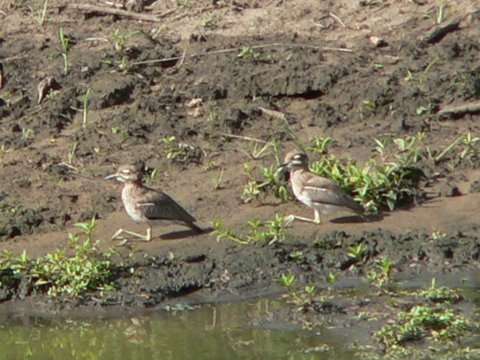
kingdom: Animalia
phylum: Chordata
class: Aves
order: Charadriiformes
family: Burhinidae
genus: Burhinus
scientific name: Burhinus vermiculatus
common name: Water thick-knee
